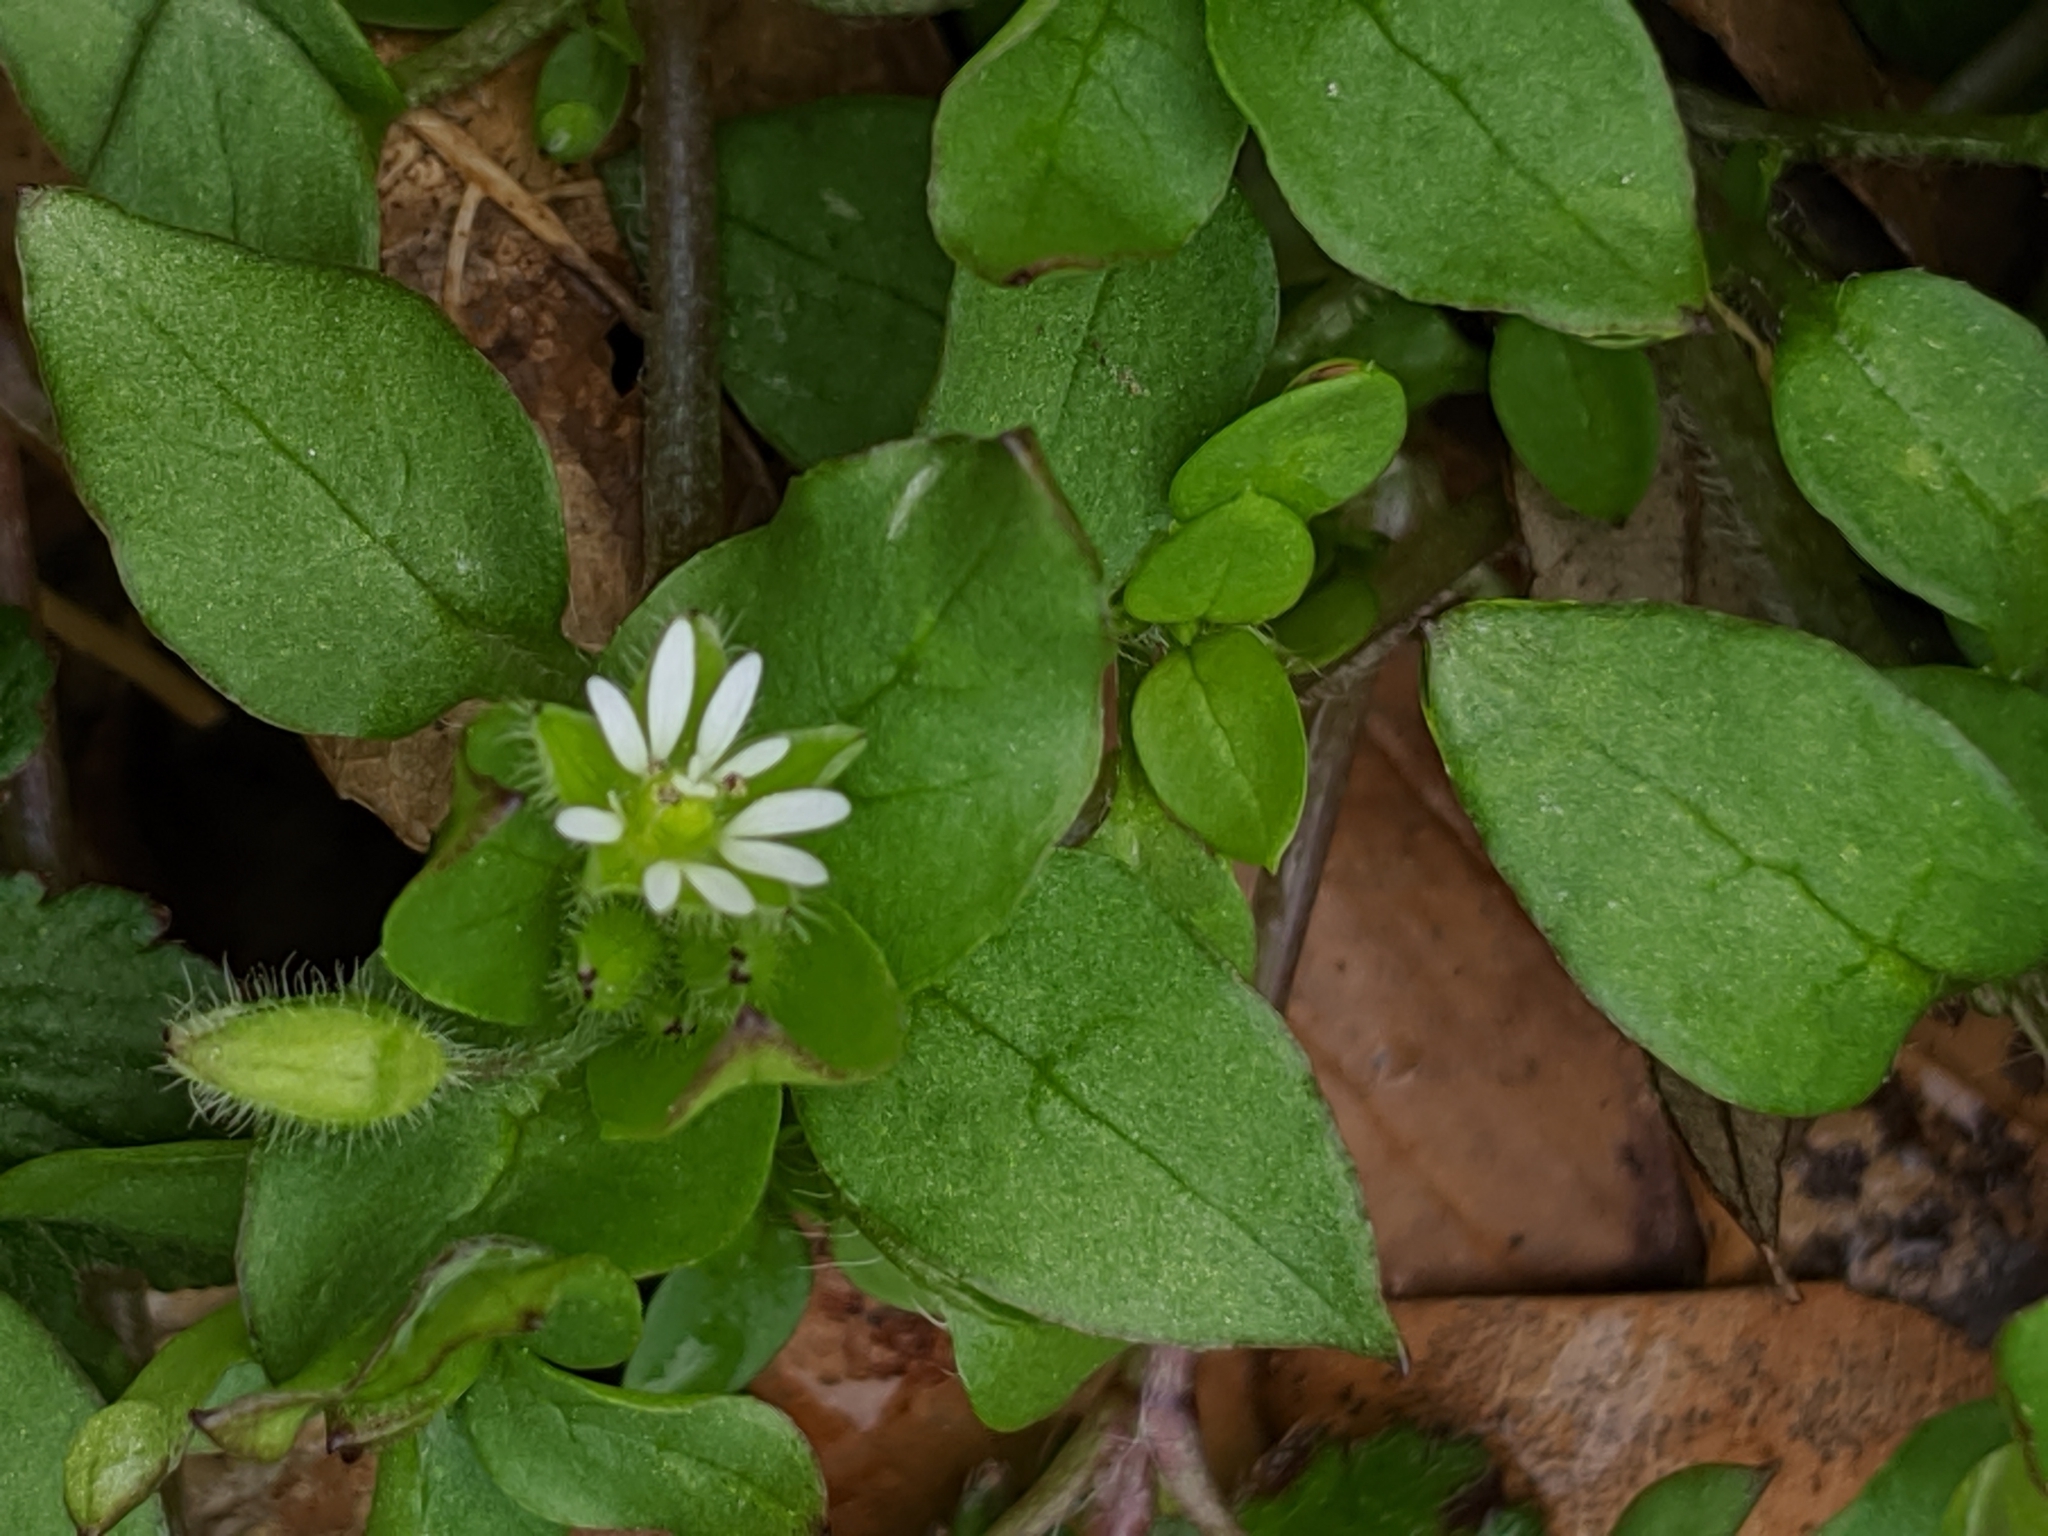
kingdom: Plantae
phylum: Tracheophyta
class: Magnoliopsida
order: Caryophyllales
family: Caryophyllaceae
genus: Stellaria
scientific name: Stellaria media
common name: Common chickweed
